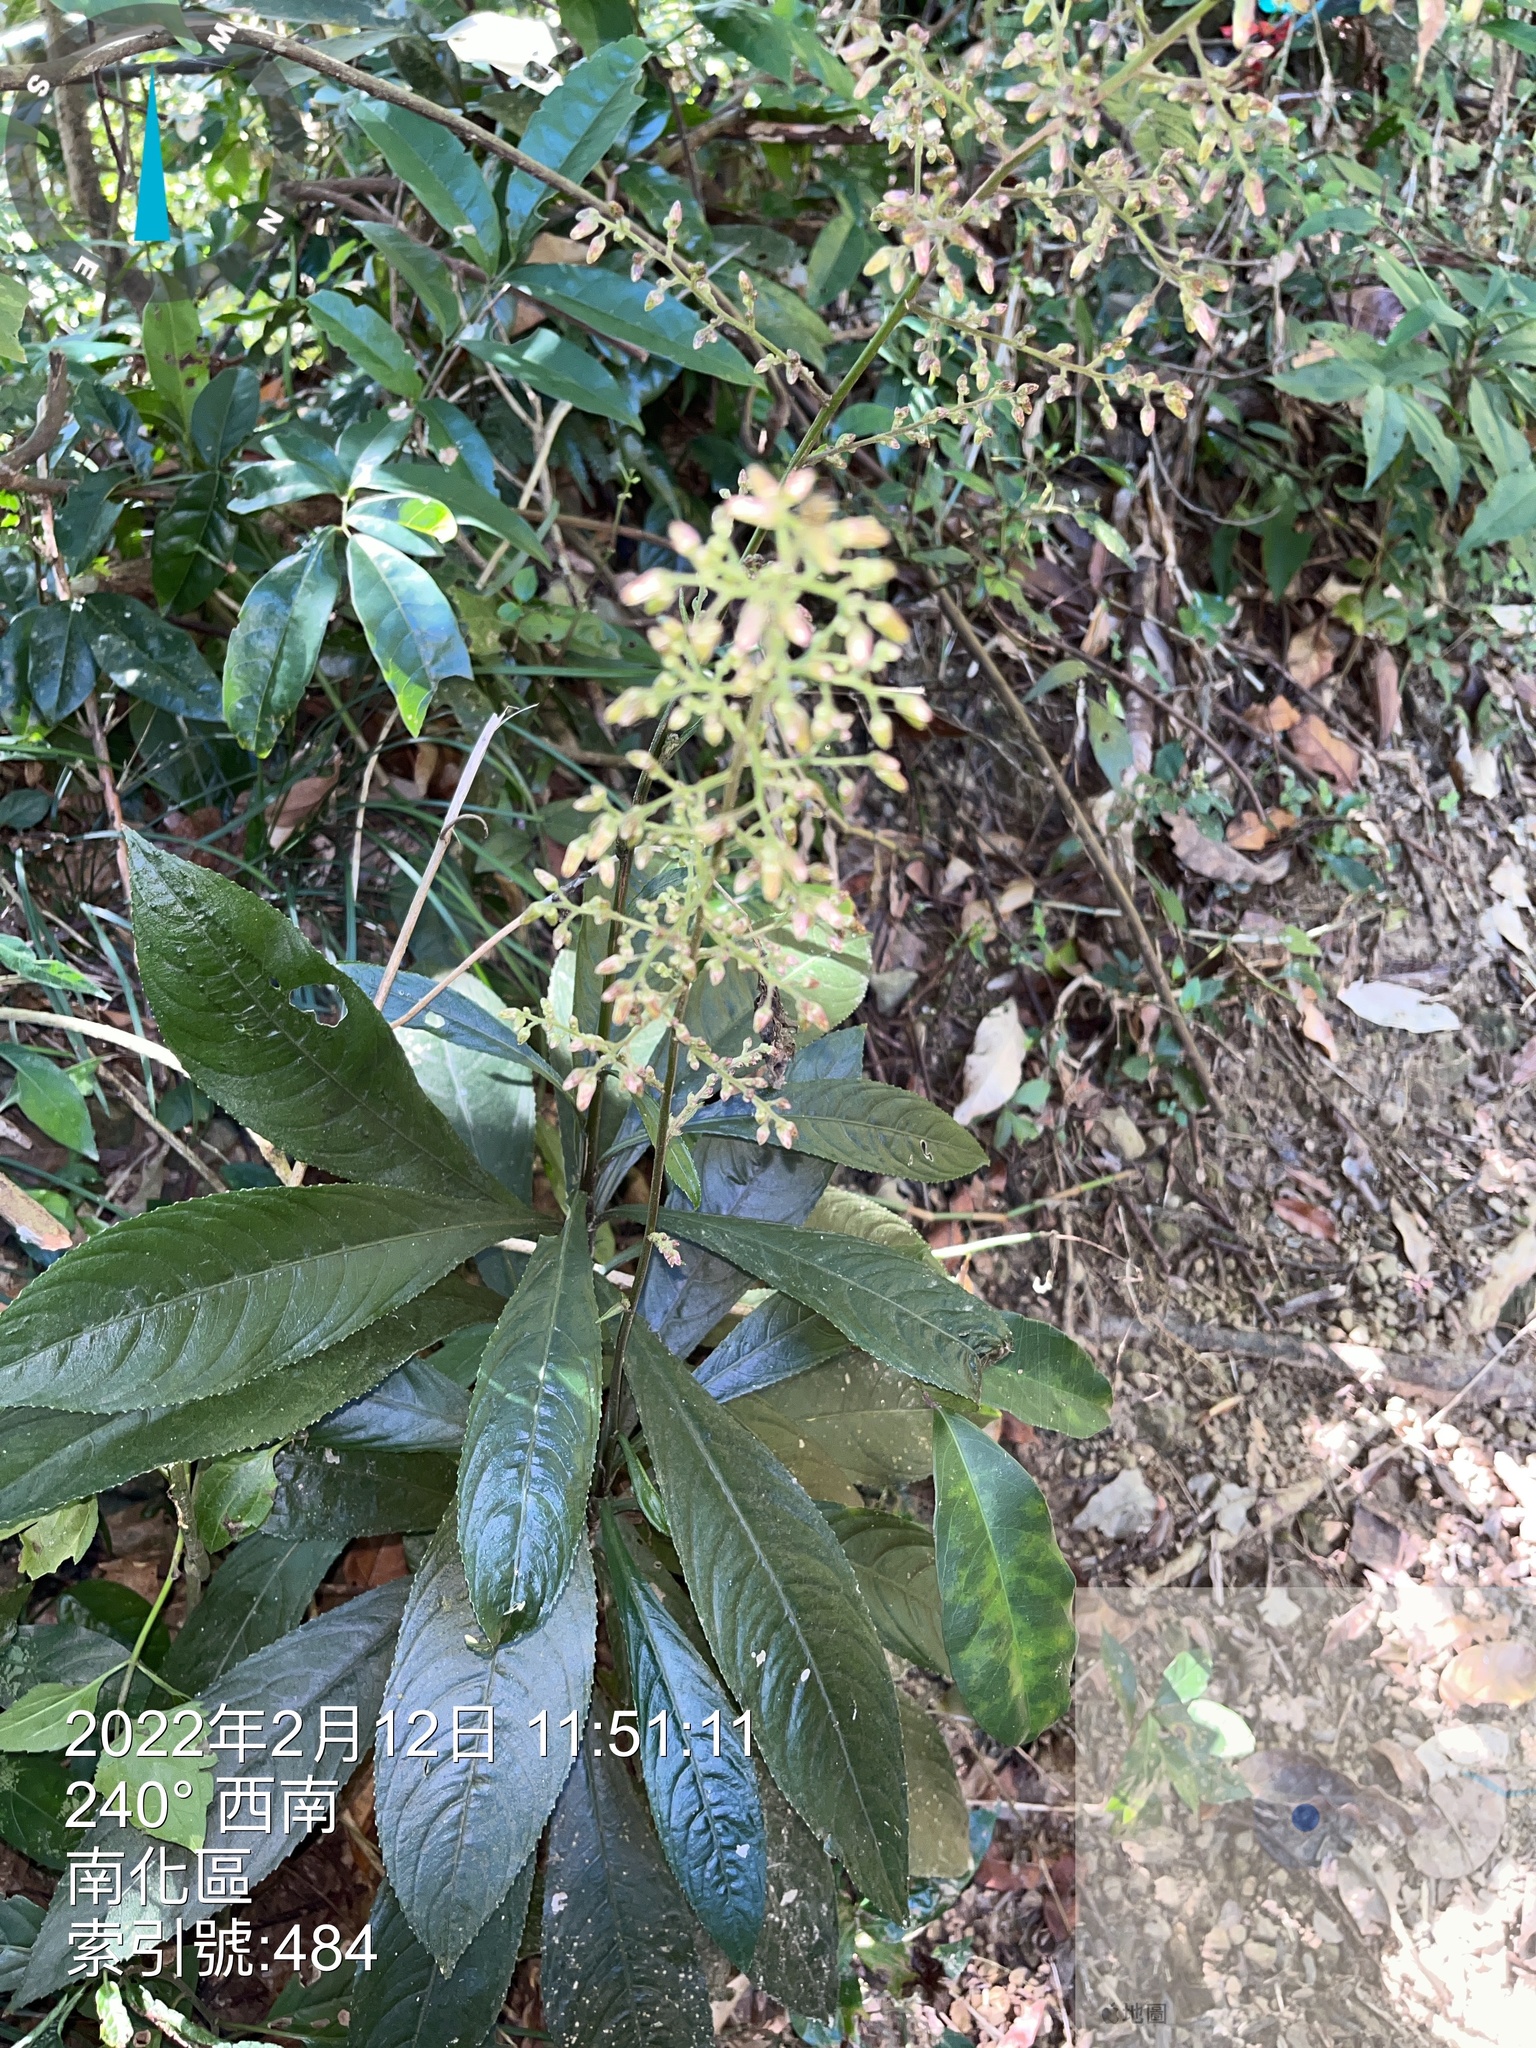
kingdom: Plantae
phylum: Tracheophyta
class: Magnoliopsida
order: Asterales
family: Asteraceae
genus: Blumea
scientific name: Blumea lanceolaria
